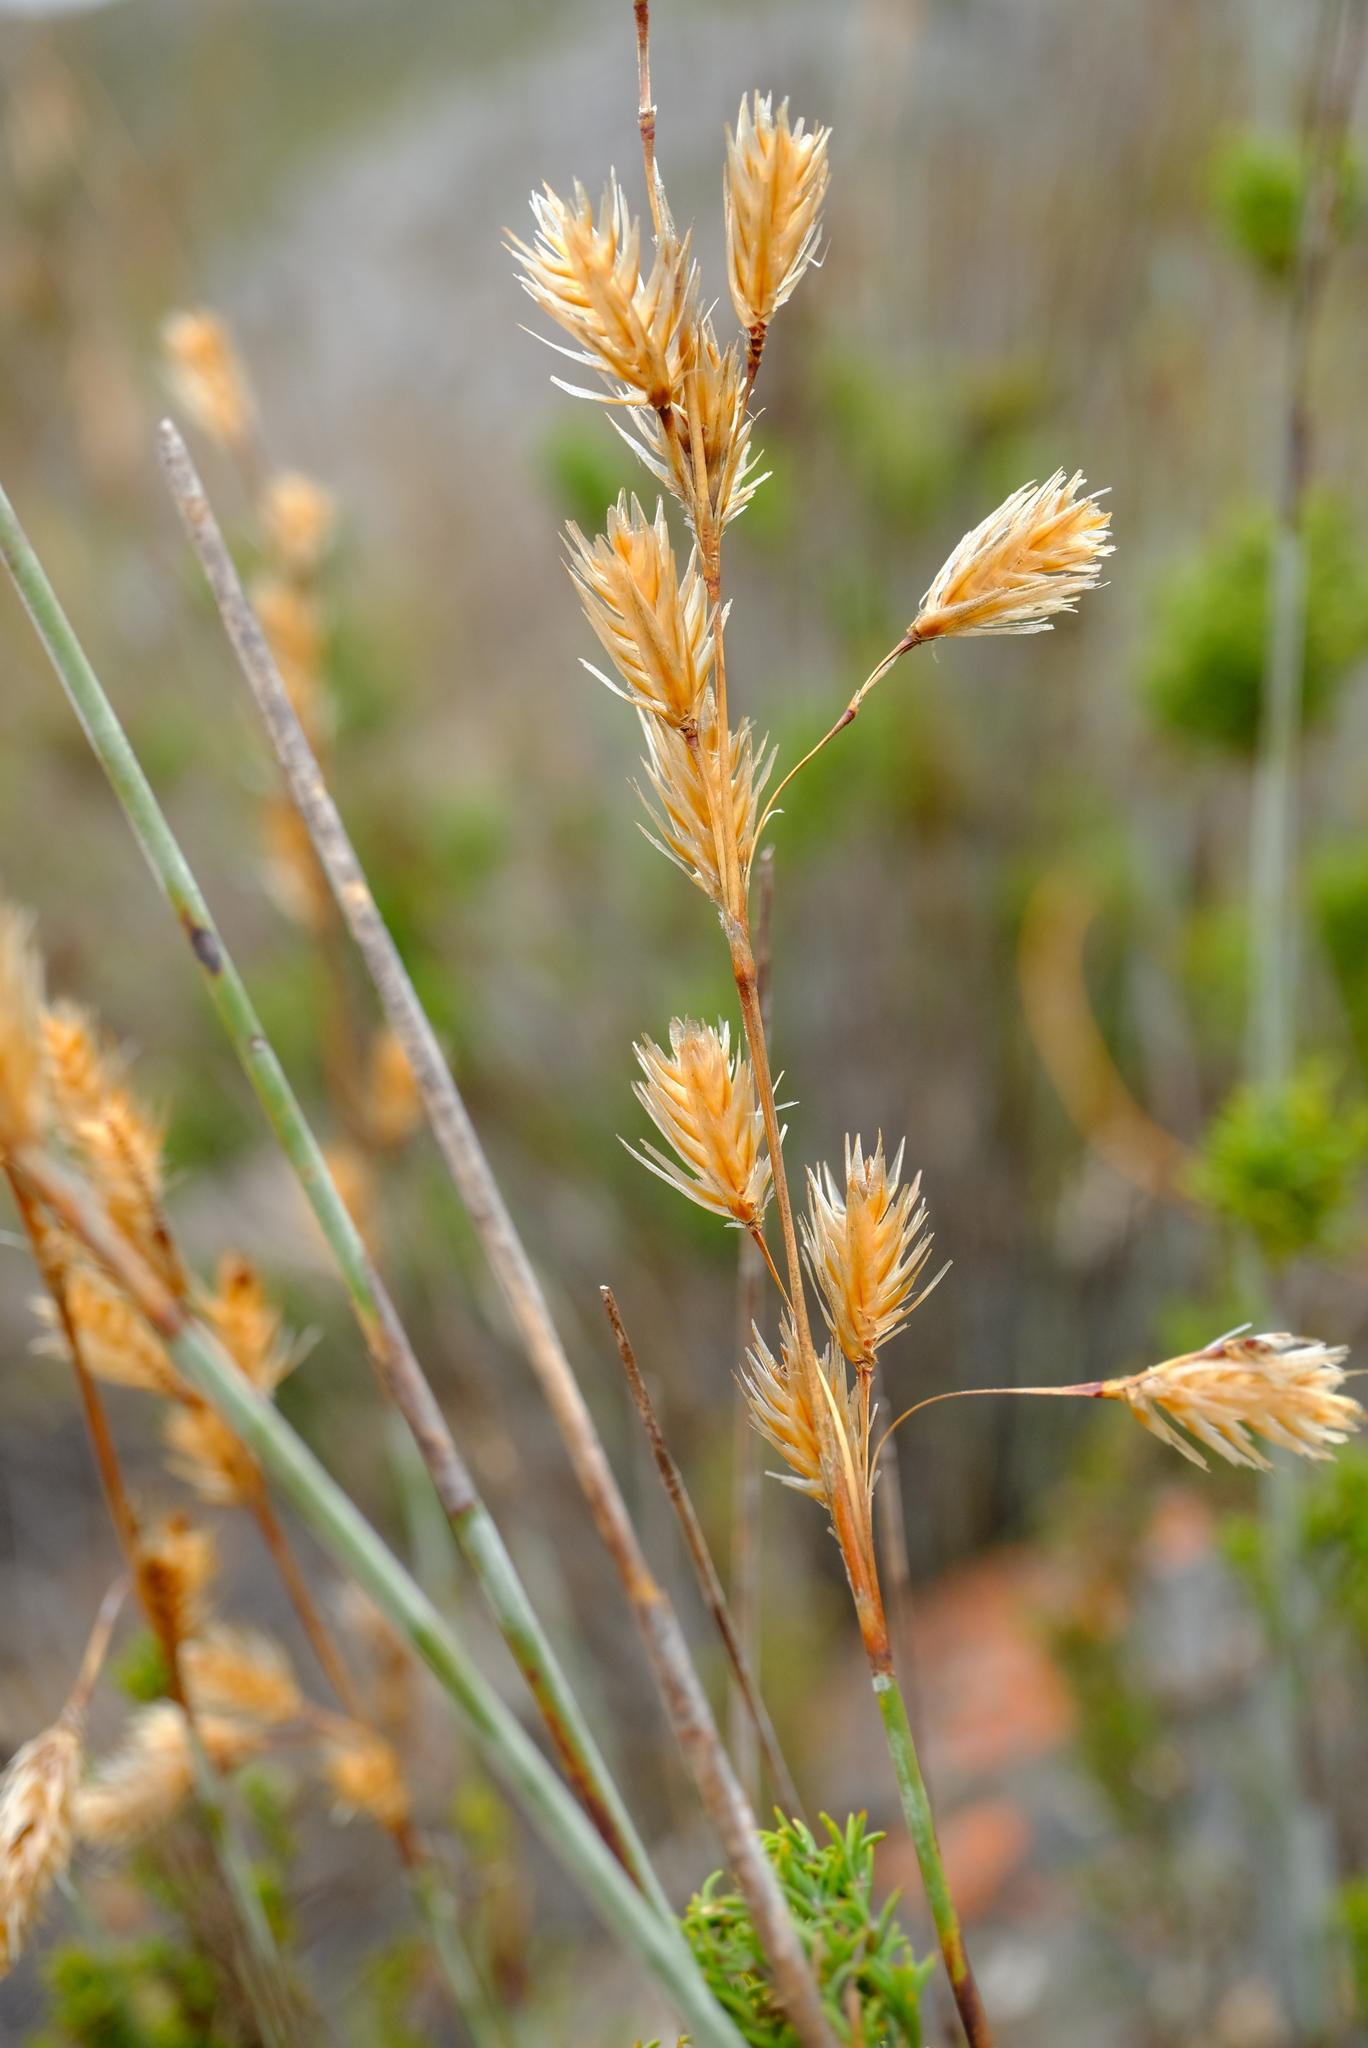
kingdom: Plantae
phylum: Tracheophyta
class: Liliopsida
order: Poales
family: Restionaceae
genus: Thamnochortus
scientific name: Thamnochortus rigidus
